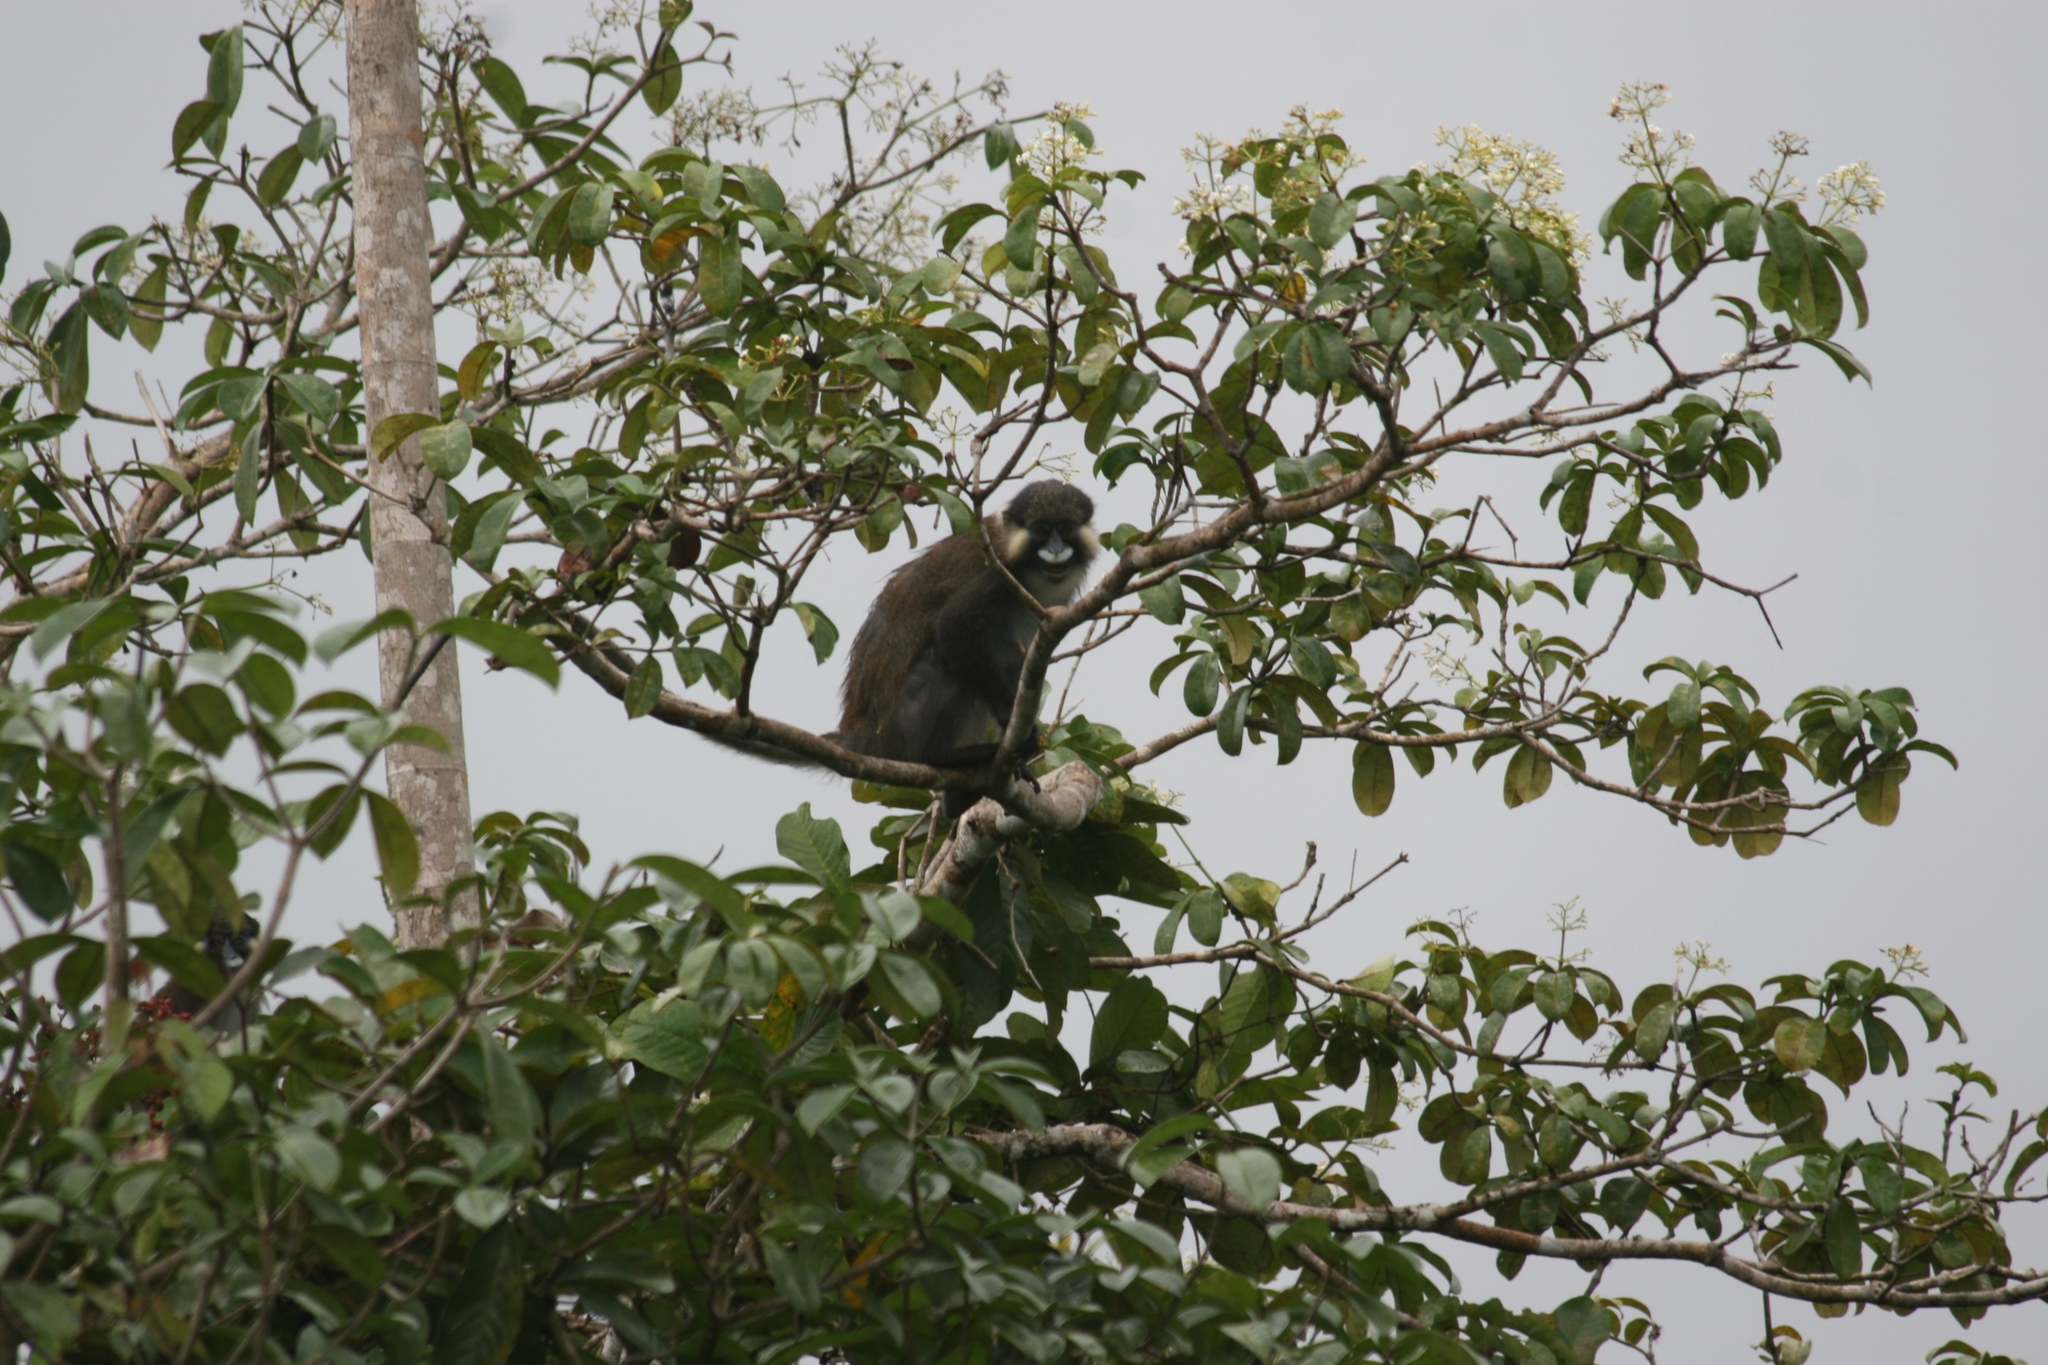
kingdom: Animalia
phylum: Chordata
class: Mammalia
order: Primates
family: Cercopithecidae
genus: Cercopithecus
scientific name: Cercopithecus cephus
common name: Moustached guenon
